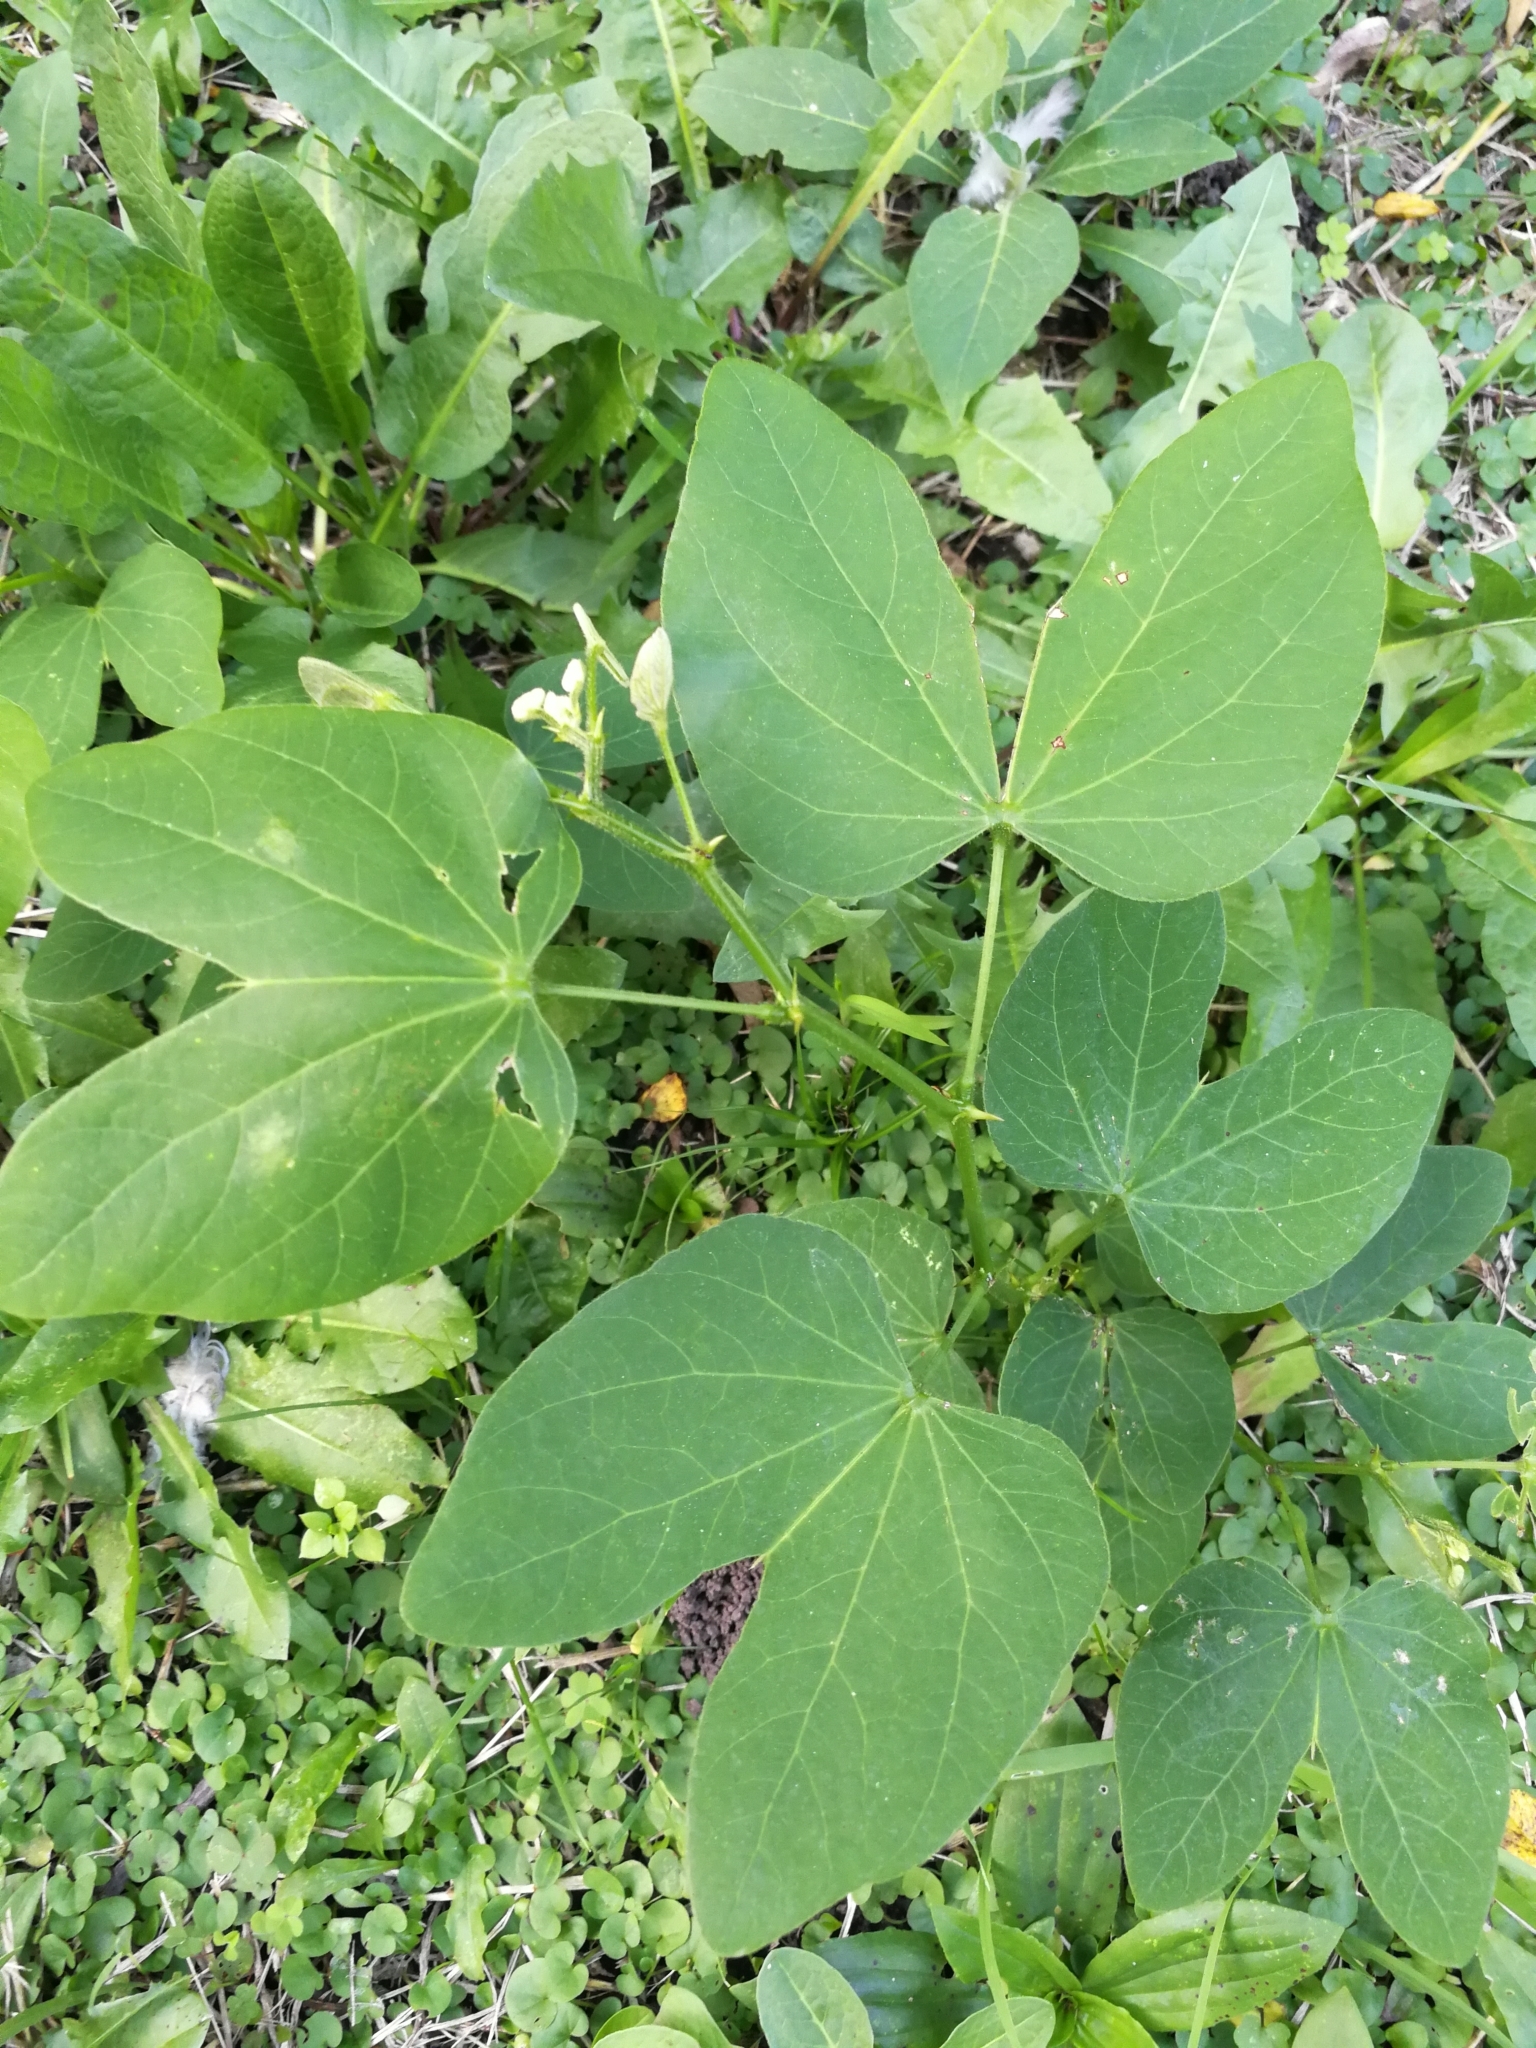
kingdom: Plantae
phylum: Tracheophyta
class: Magnoliopsida
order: Fabales
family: Fabaceae
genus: Bauhinia
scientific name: Bauhinia forficata
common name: Orchid tree
